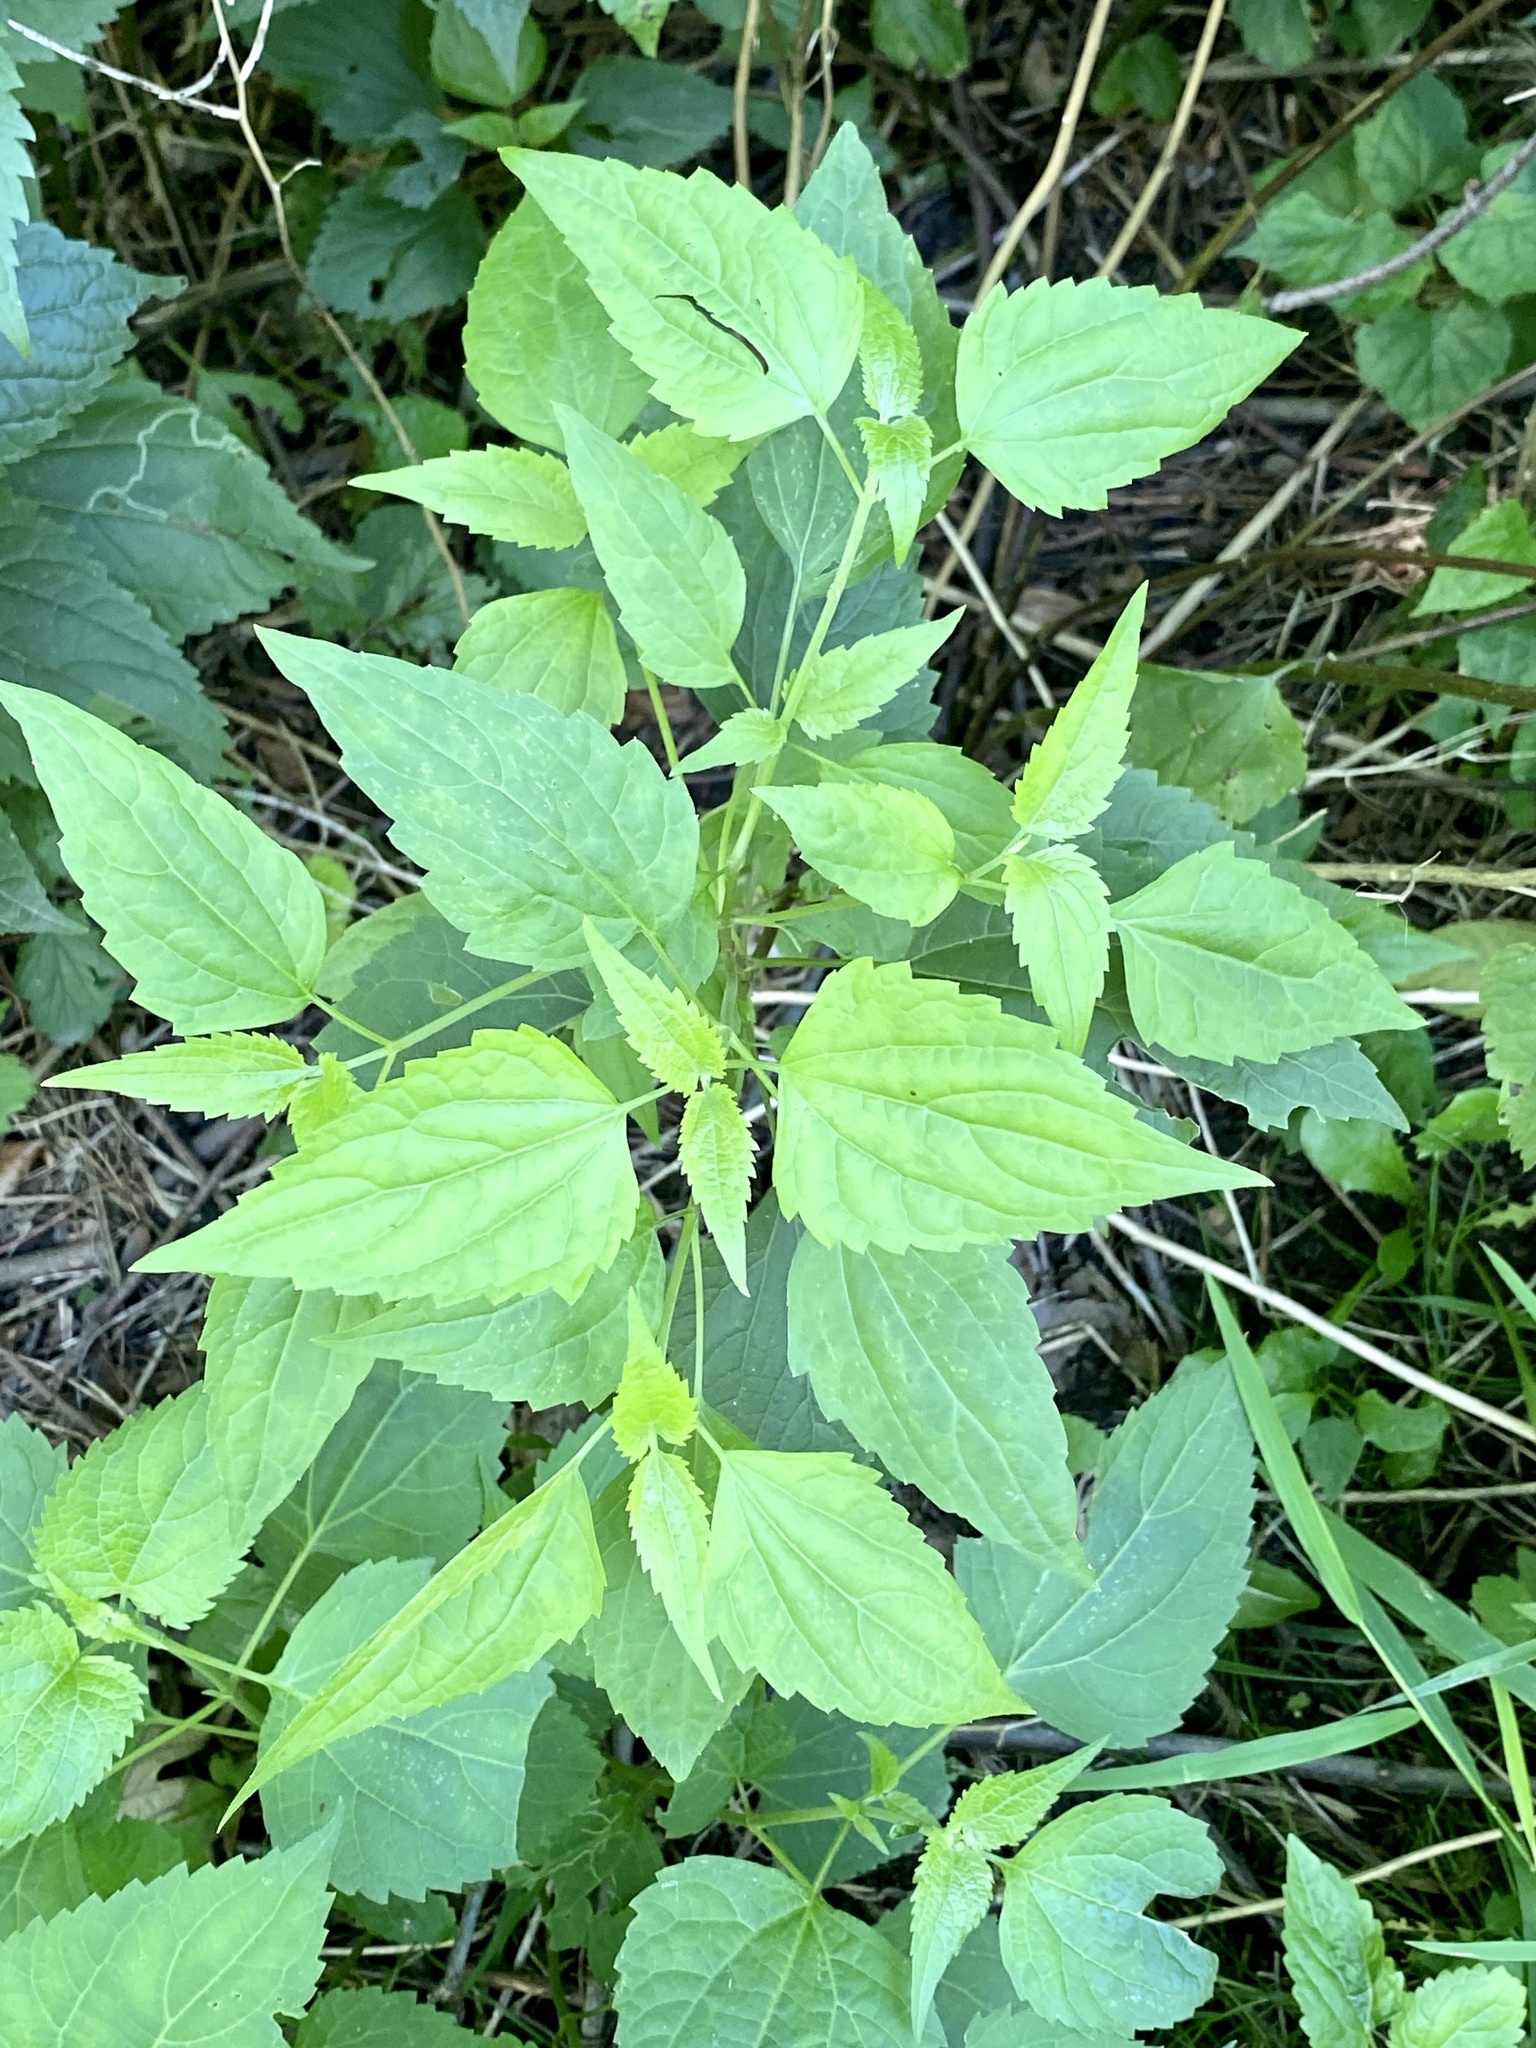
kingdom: Plantae
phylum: Tracheophyta
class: Magnoliopsida
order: Asterales
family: Asteraceae
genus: Ageratina
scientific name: Ageratina altissima
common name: White snakeroot
